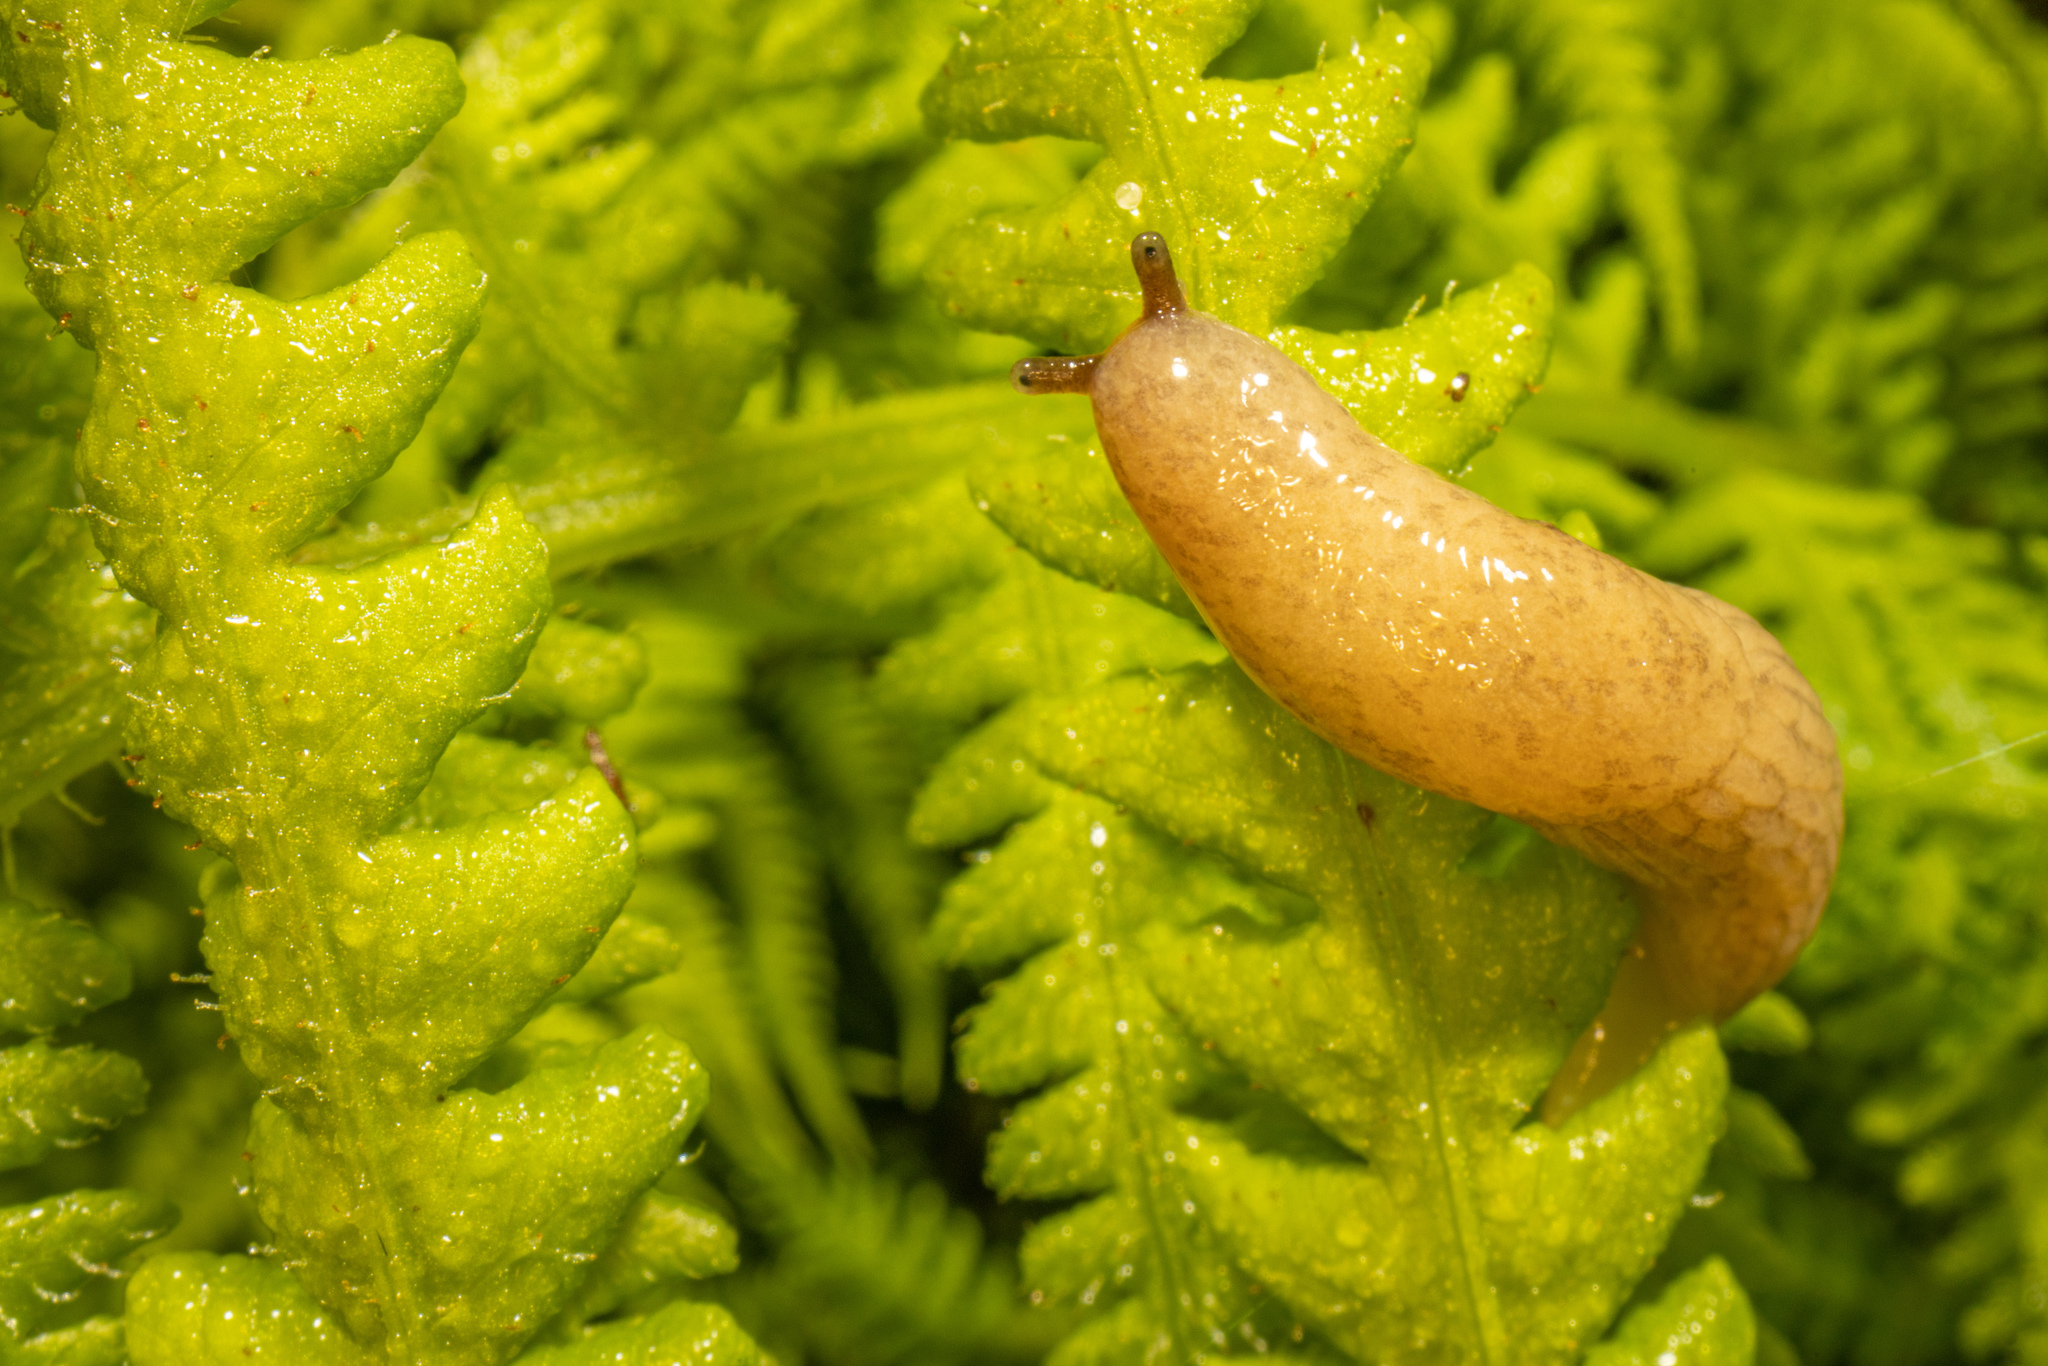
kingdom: Animalia
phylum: Mollusca
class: Gastropoda
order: Stylommatophora
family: Agriolimacidae
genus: Deroceras
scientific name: Deroceras reticulatum
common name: Gray field slug
